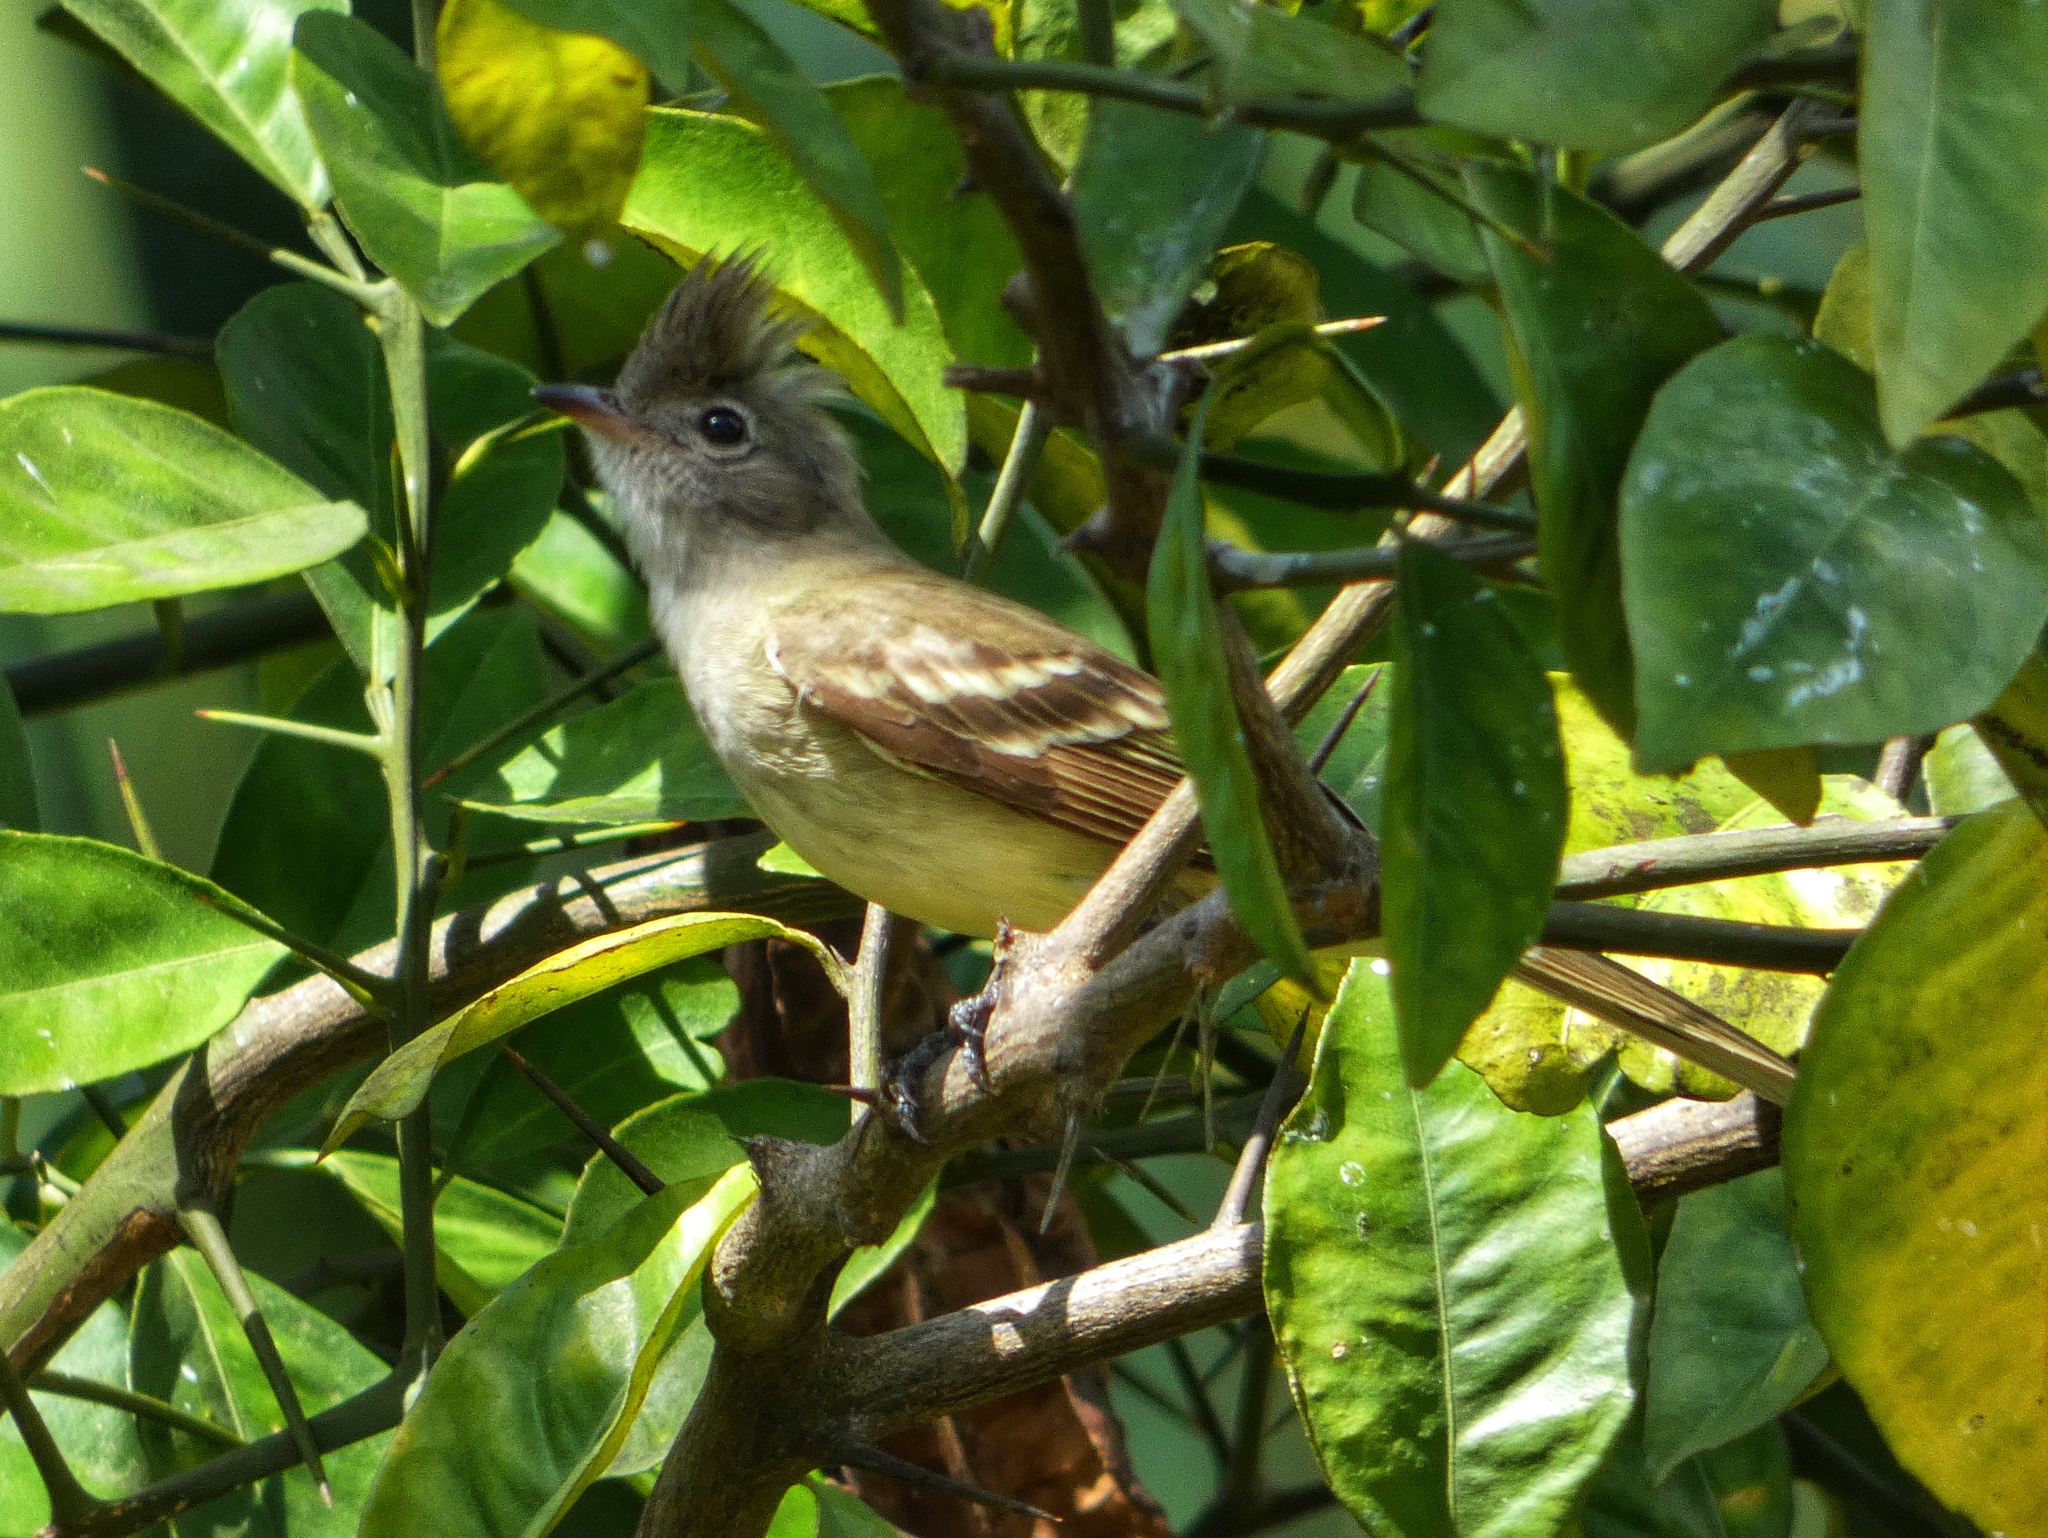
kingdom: Animalia
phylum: Chordata
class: Aves
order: Passeriformes
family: Tyrannidae
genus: Elaenia
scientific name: Elaenia flavogaster
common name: Yellow-bellied elaenia
